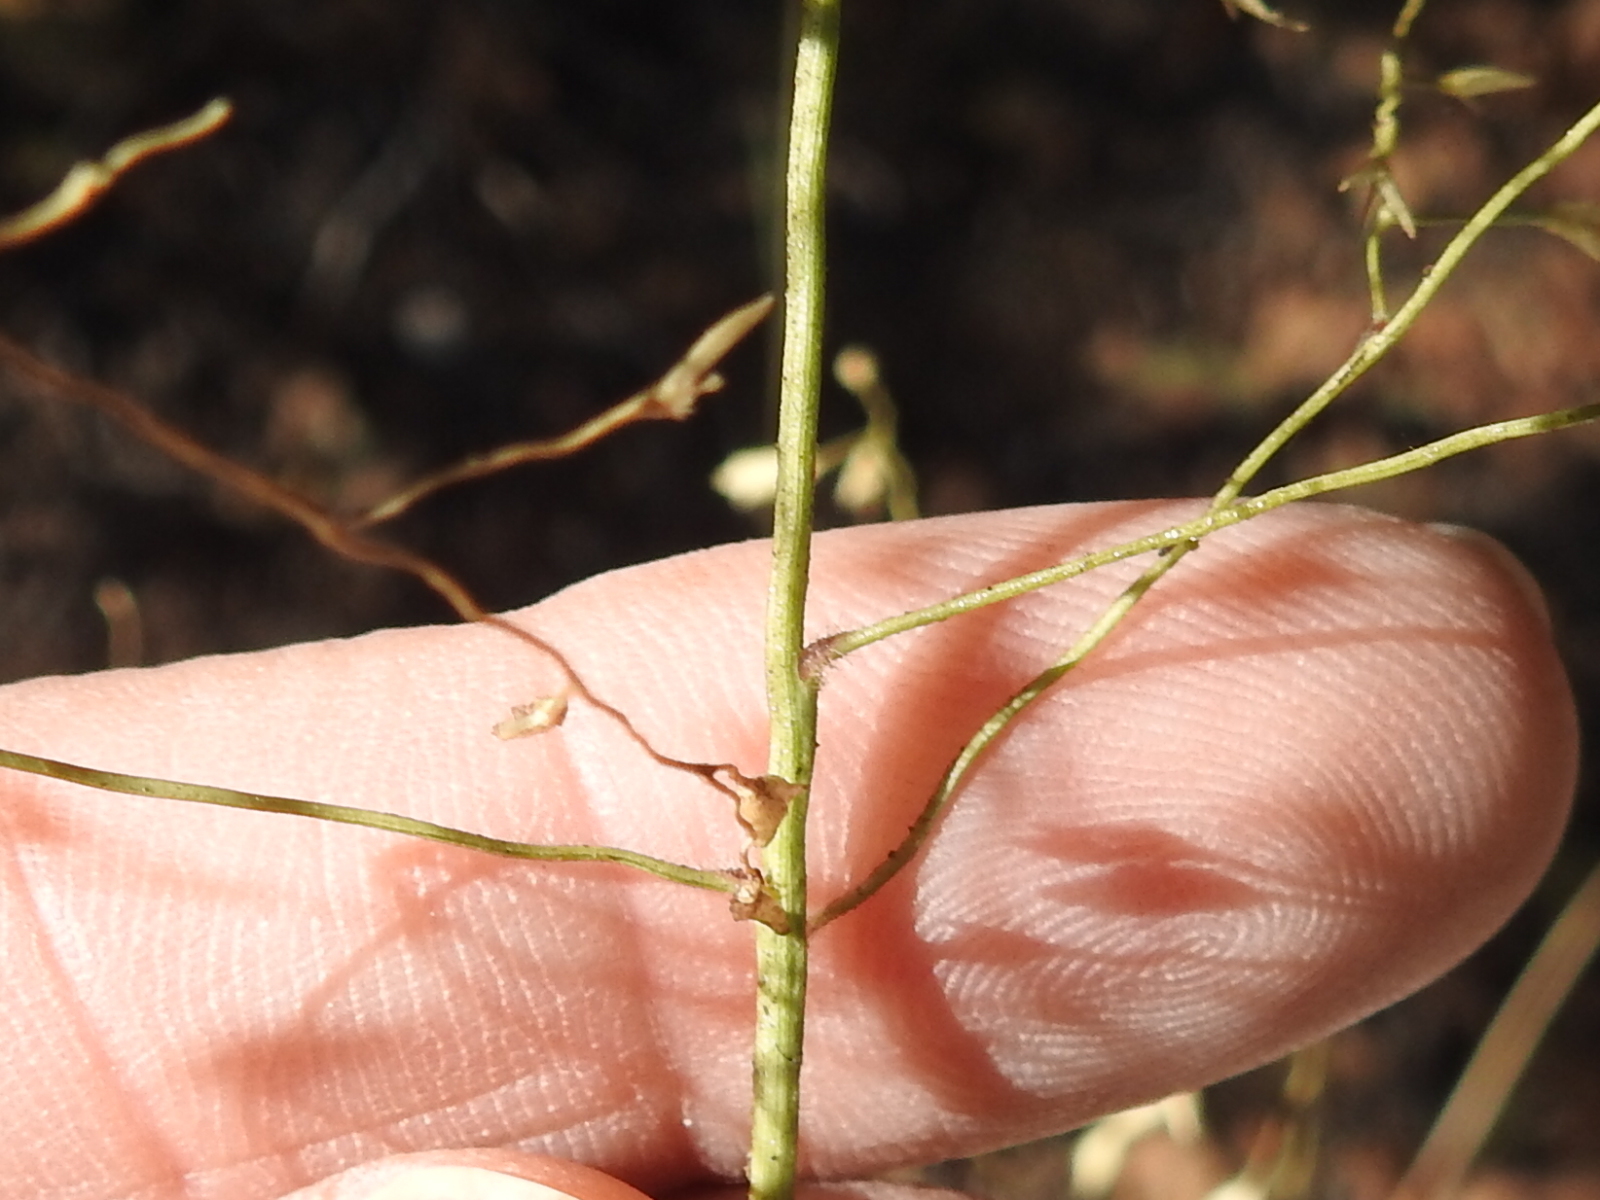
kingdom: Plantae
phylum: Tracheophyta
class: Liliopsida
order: Poales
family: Poaceae
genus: Tridens
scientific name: Tridens chapmanii
